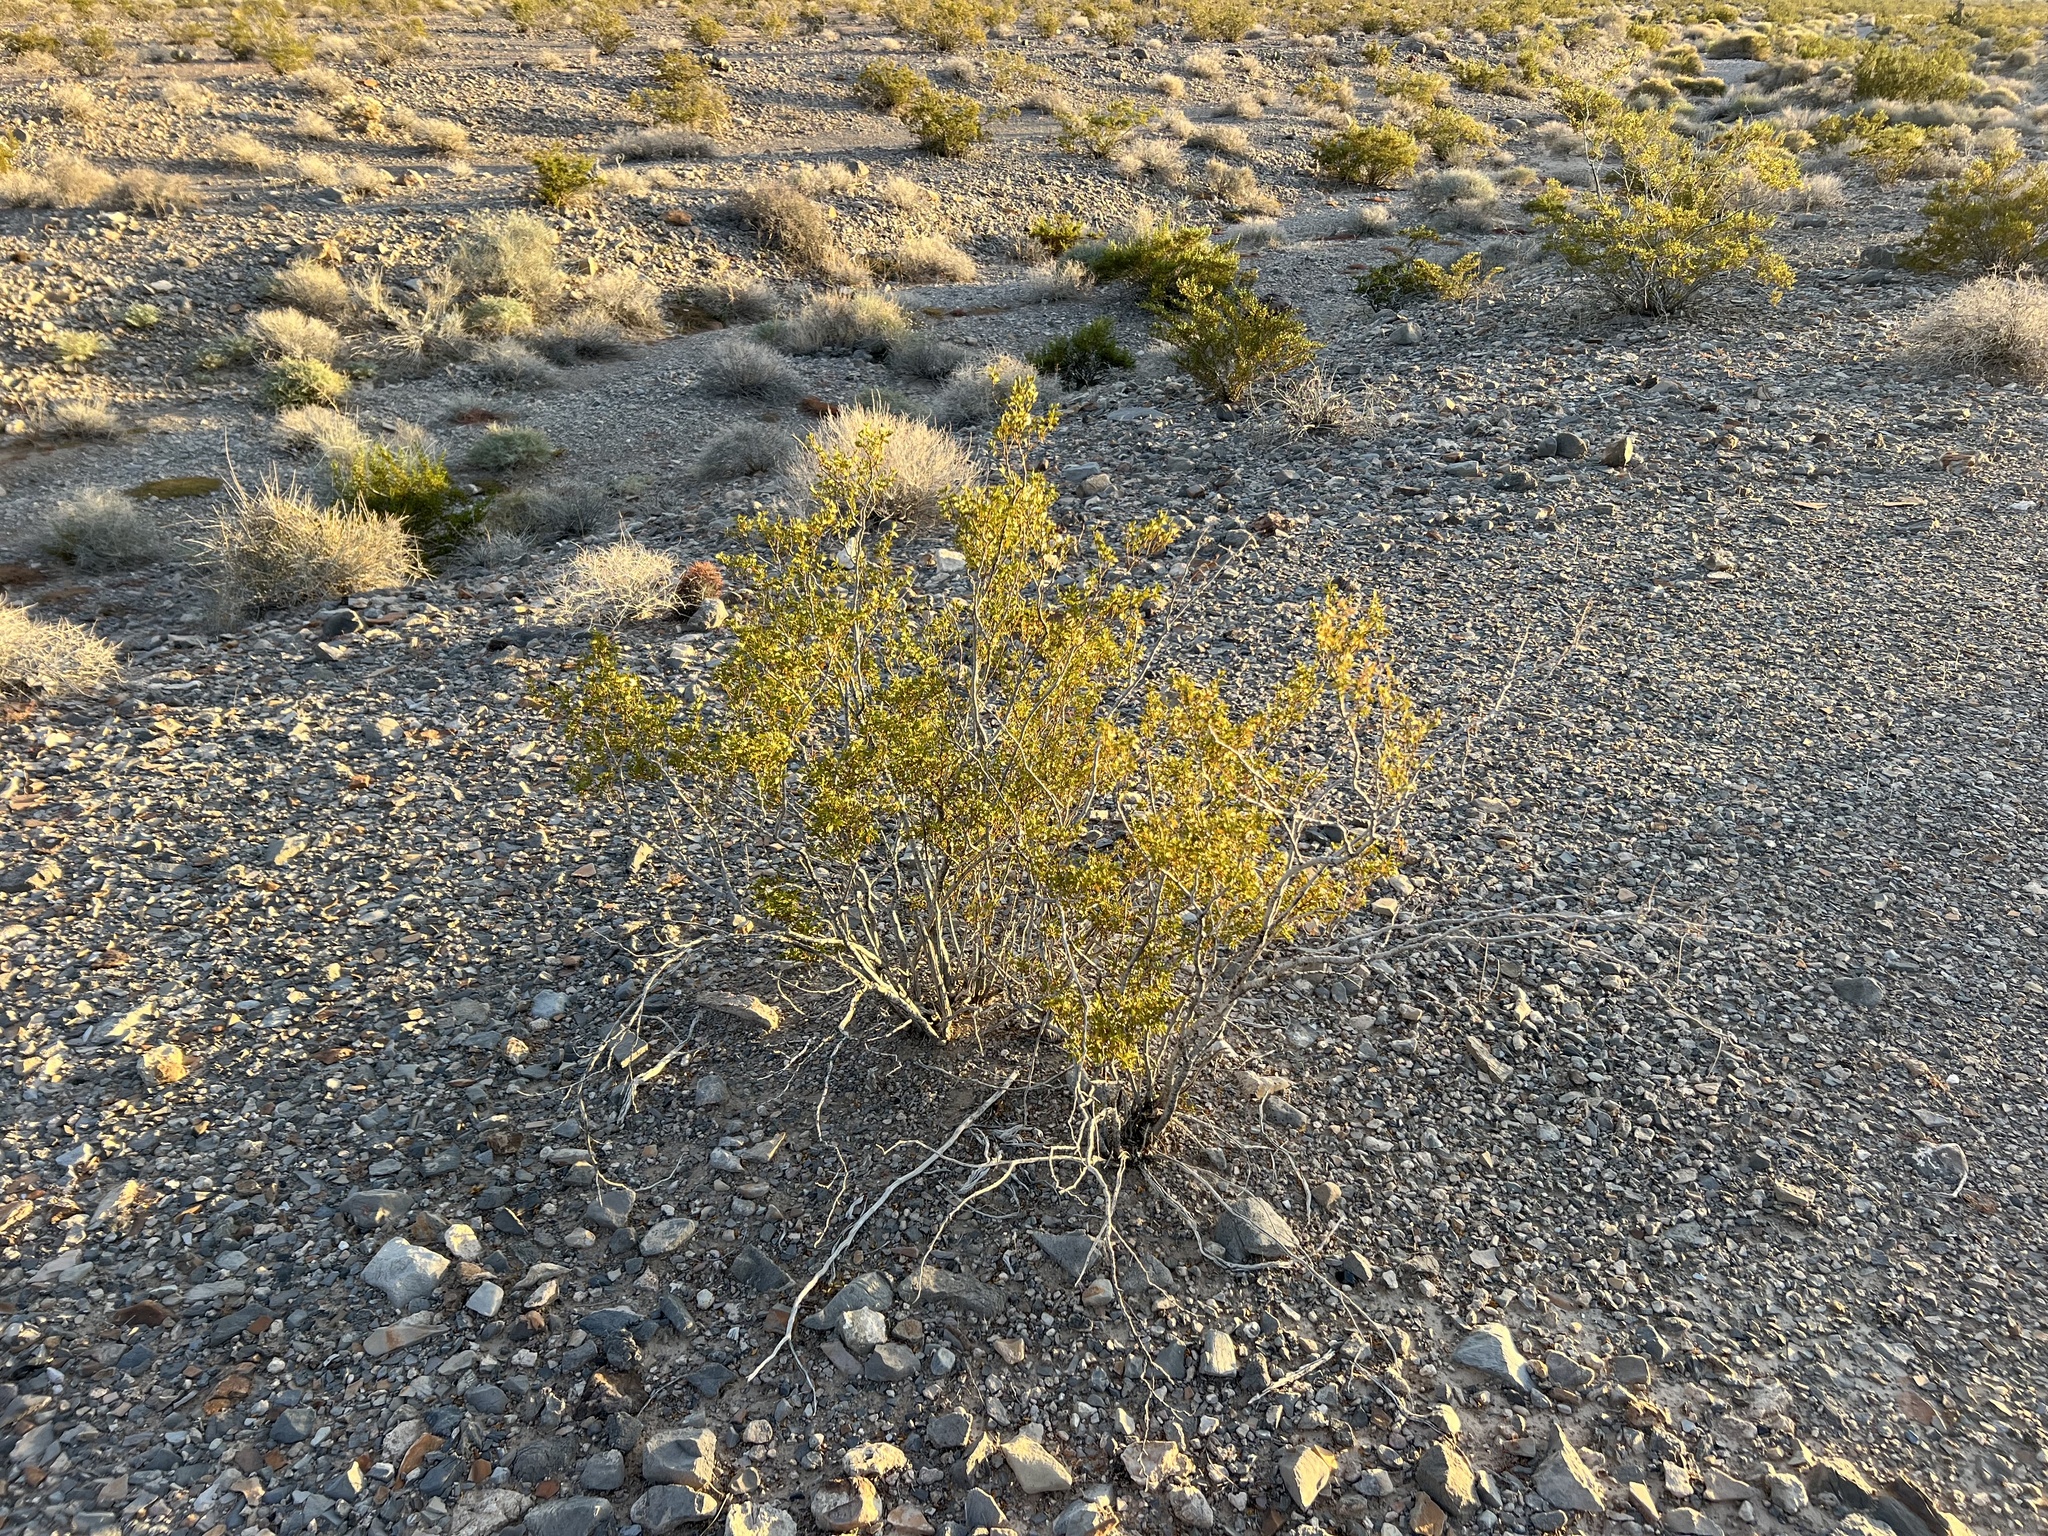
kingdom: Plantae
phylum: Tracheophyta
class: Magnoliopsida
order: Zygophyllales
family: Zygophyllaceae
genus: Larrea
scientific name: Larrea tridentata
